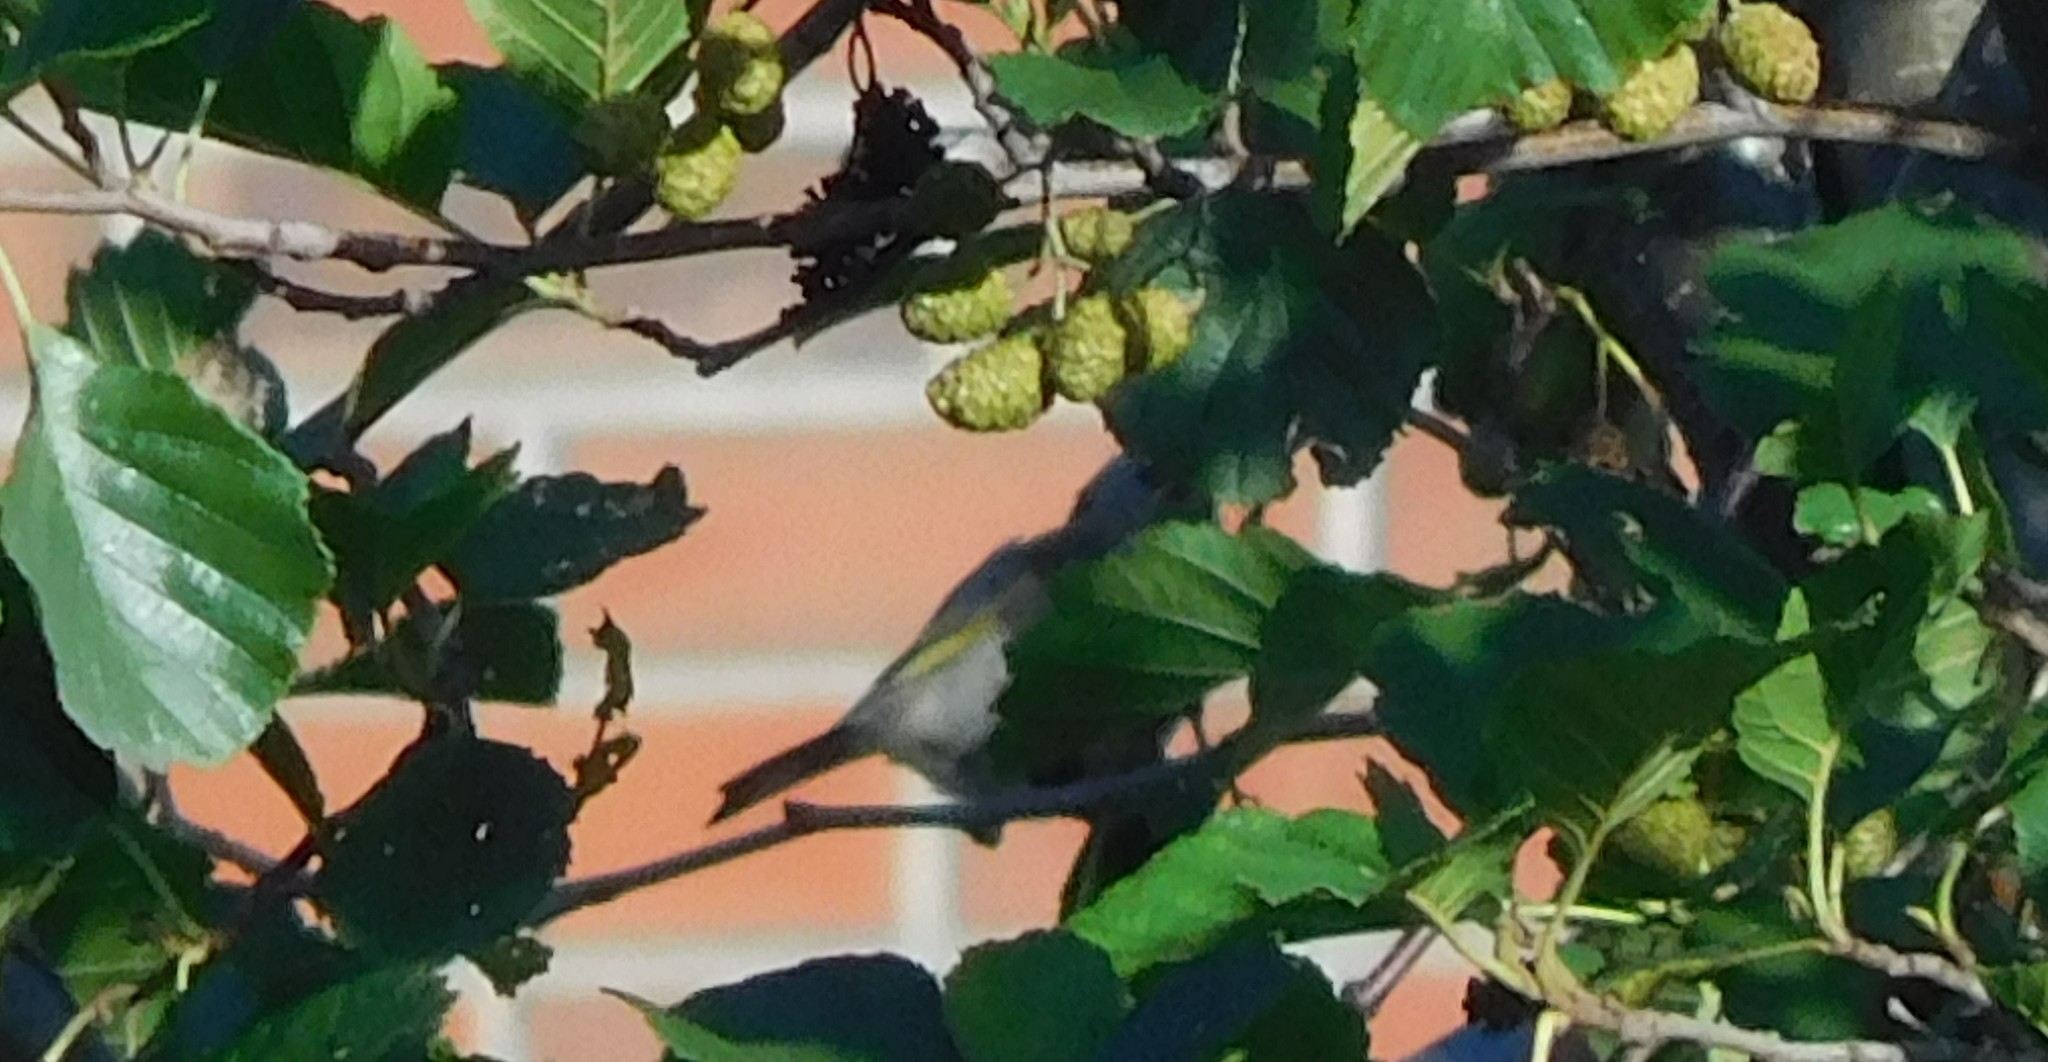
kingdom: Animalia
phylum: Chordata
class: Aves
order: Passeriformes
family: Fringillidae
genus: Carduelis
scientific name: Carduelis carduelis
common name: European goldfinch
